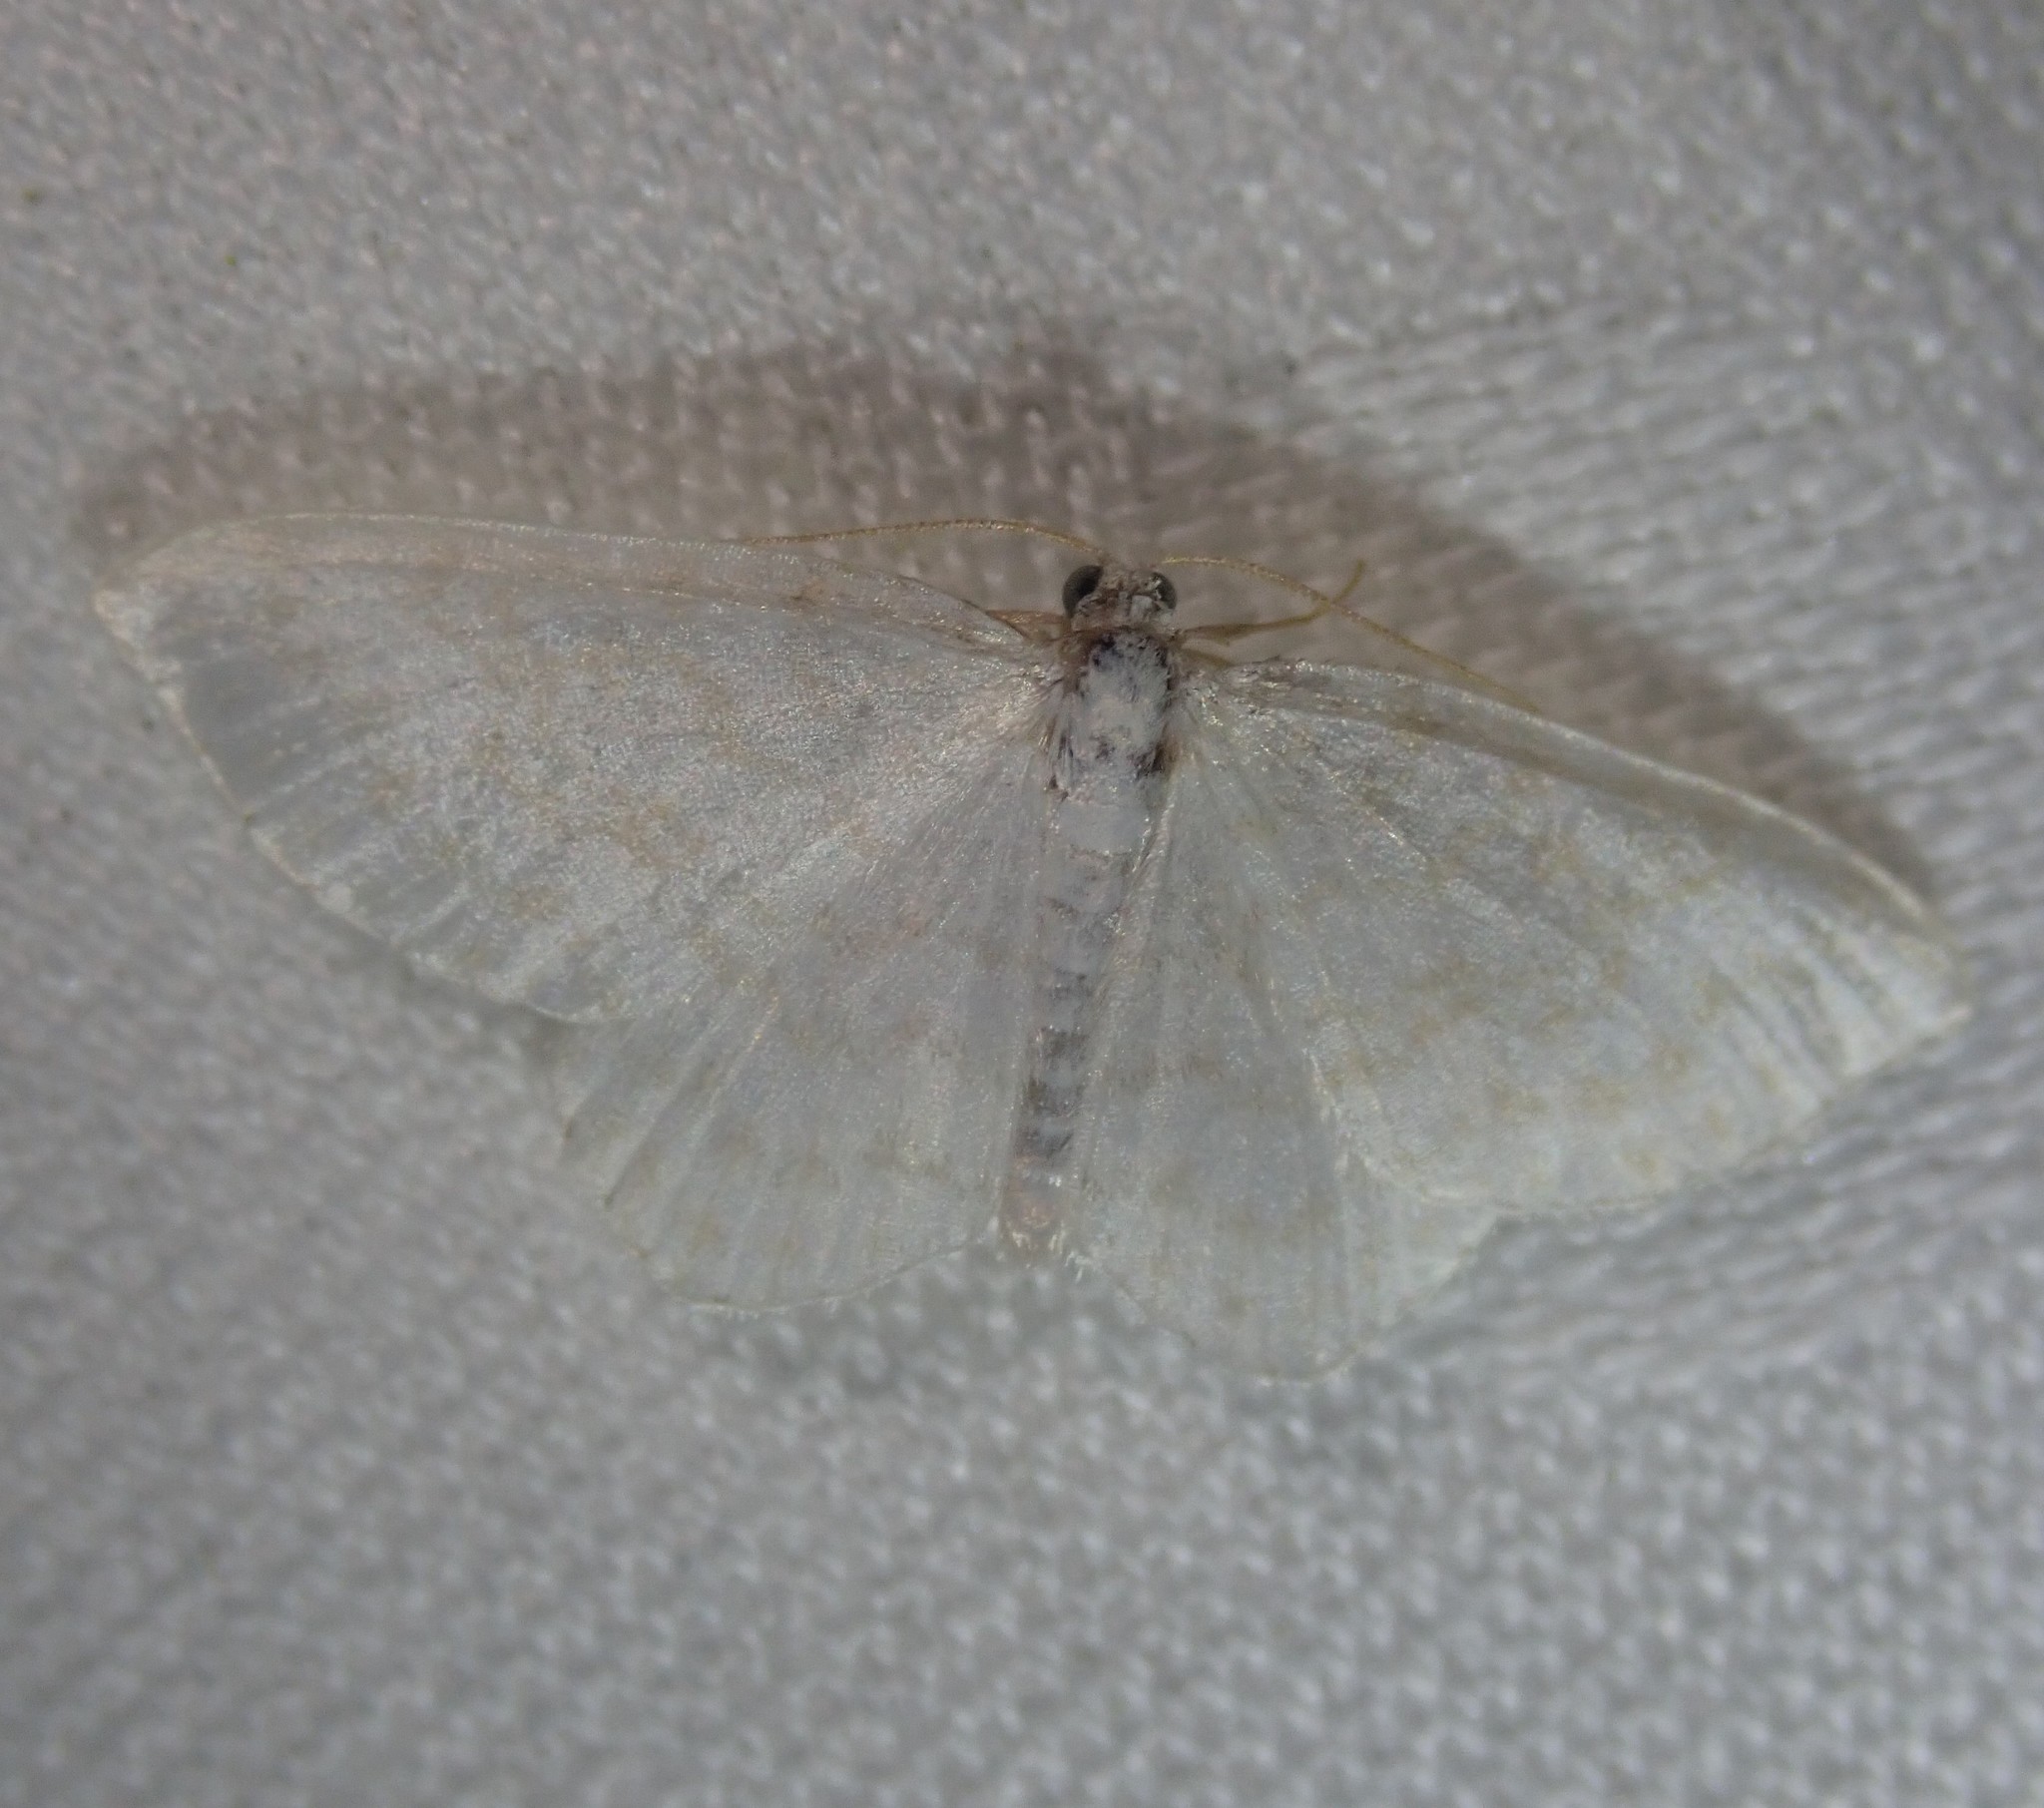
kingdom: Animalia
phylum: Arthropoda
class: Insecta
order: Lepidoptera
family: Geometridae
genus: Asthena
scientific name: Asthena albulata
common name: Small white wave
